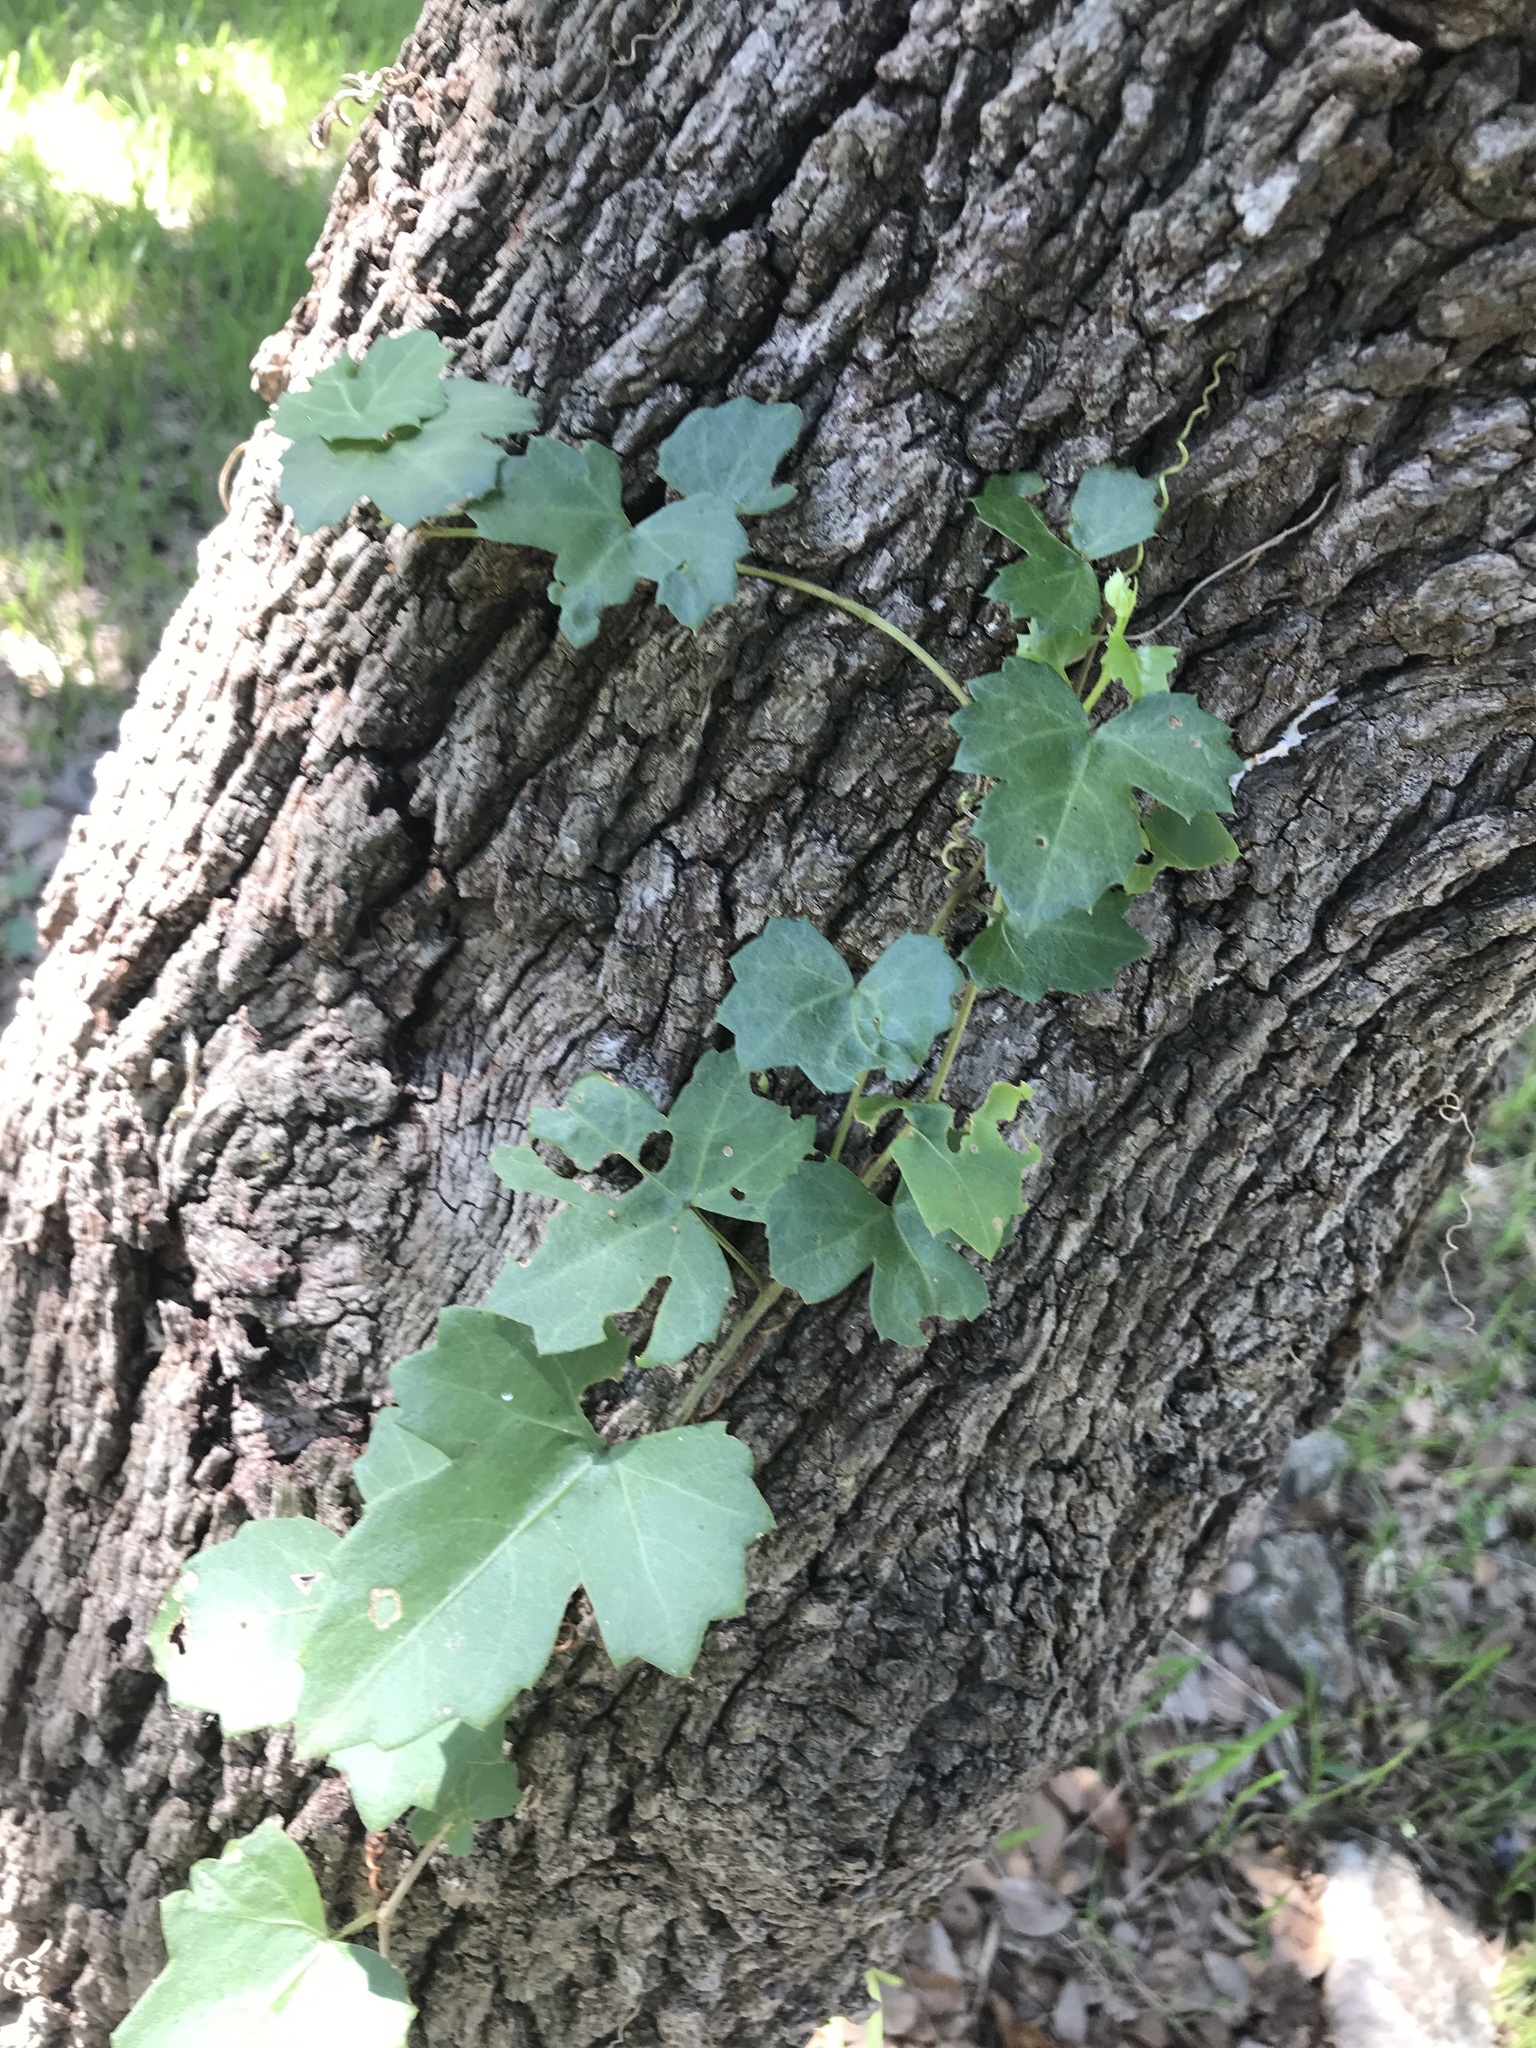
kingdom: Plantae
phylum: Tracheophyta
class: Magnoliopsida
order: Vitales
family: Vitaceae
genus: Cissus
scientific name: Cissus trifoliata
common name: Vine-sorrel
